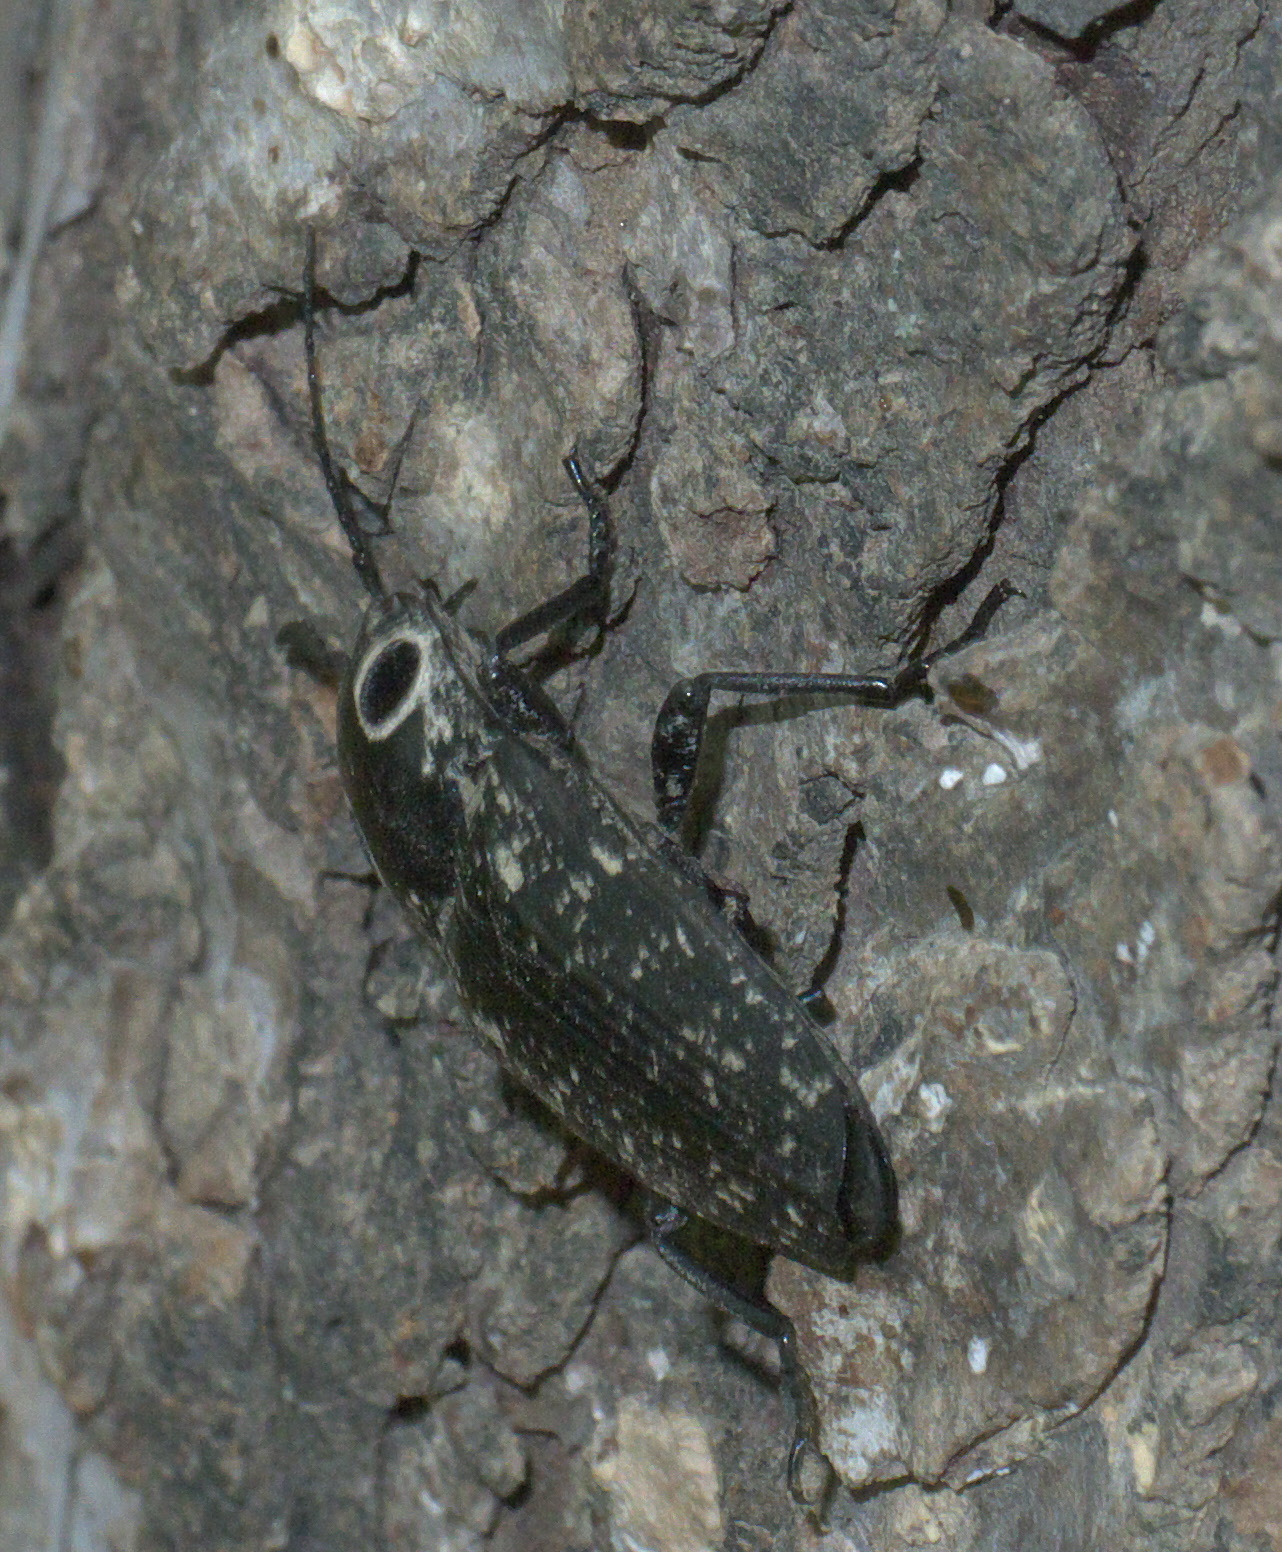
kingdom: Animalia
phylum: Arthropoda
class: Insecta
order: Coleoptera
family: Elateridae
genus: Alaus
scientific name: Alaus oculatus
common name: Eastern eyed click beetle
